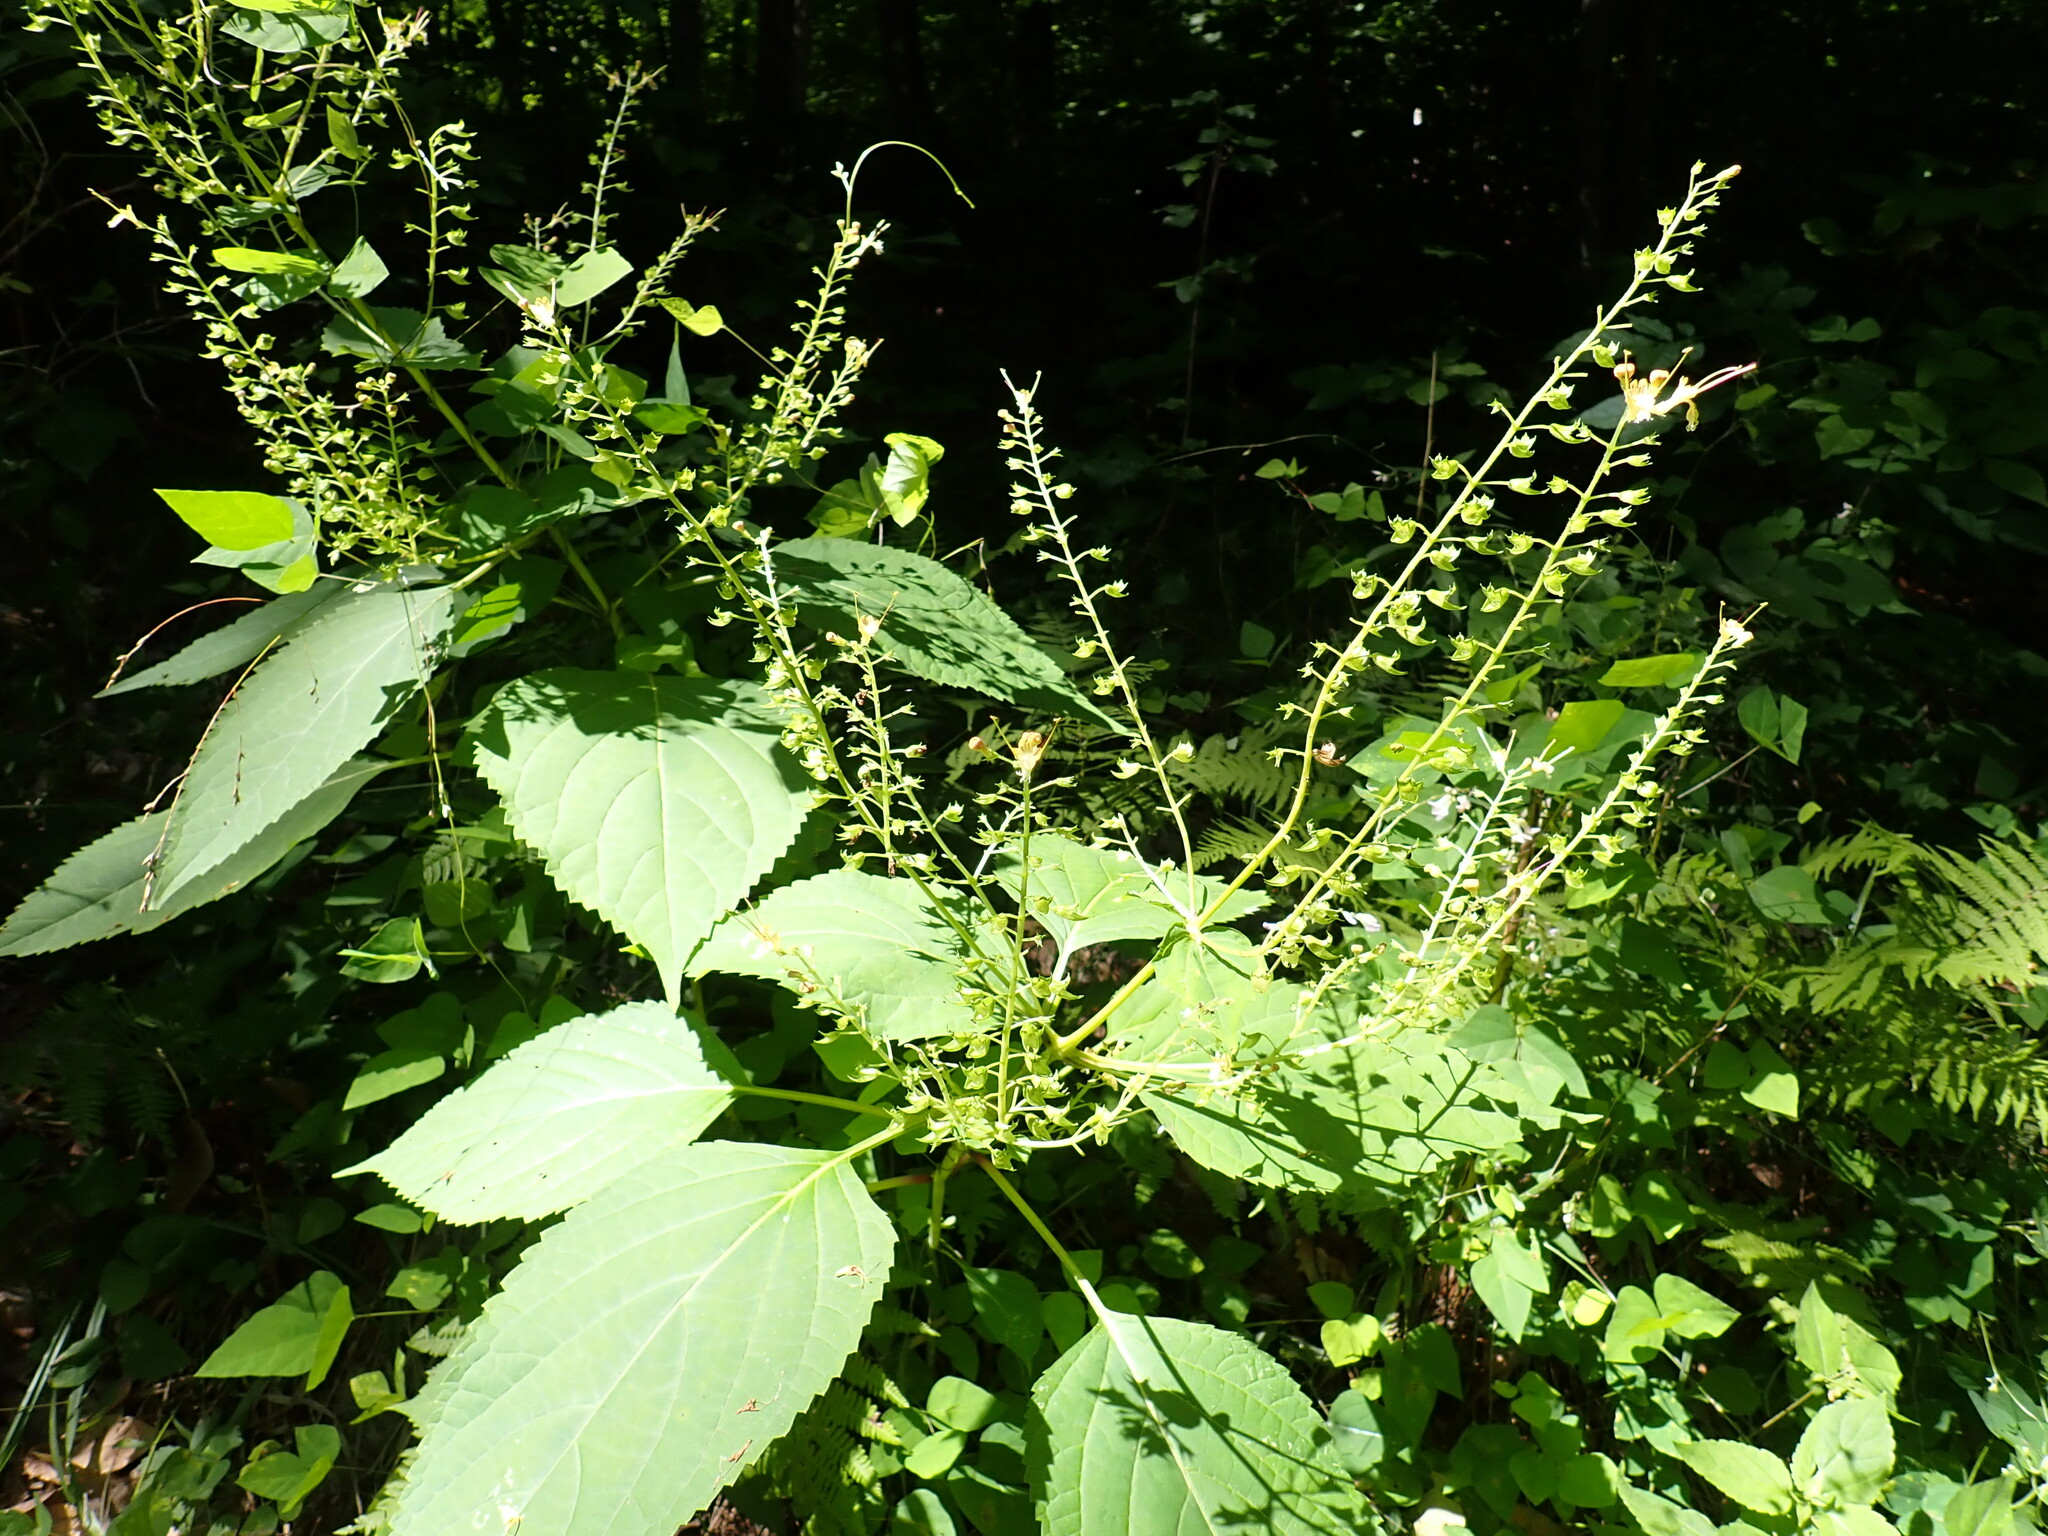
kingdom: Plantae
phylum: Tracheophyta
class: Magnoliopsida
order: Lamiales
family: Lamiaceae
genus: Collinsonia
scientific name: Collinsonia canadensis
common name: Northern horsebalm
